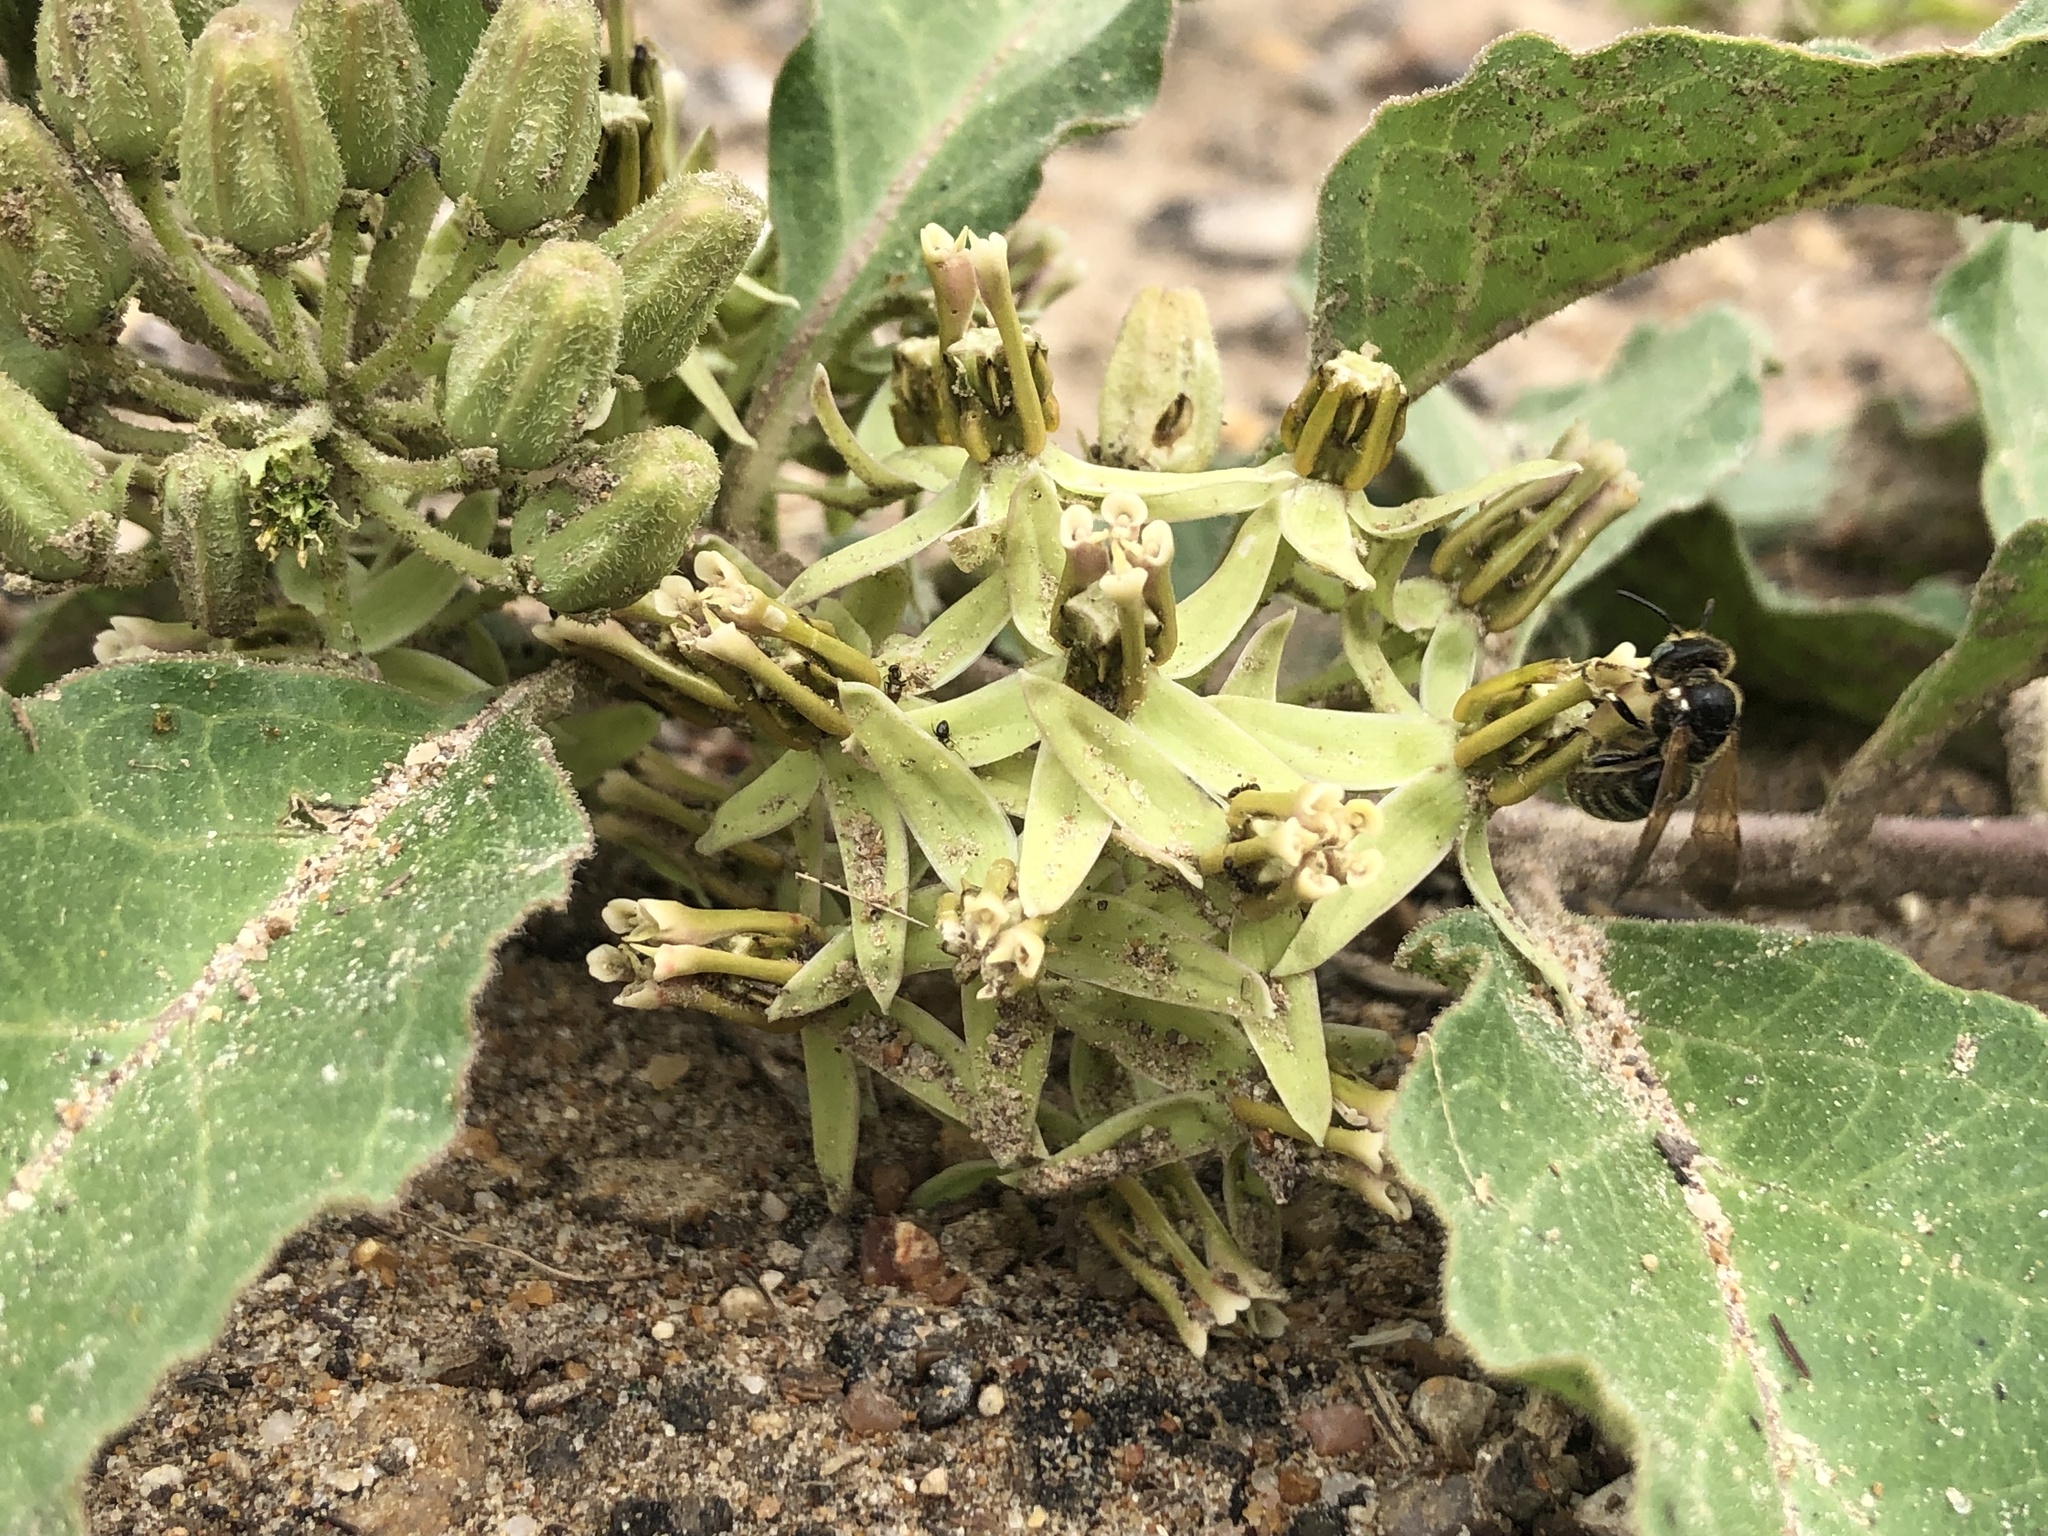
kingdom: Plantae
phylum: Tracheophyta
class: Magnoliopsida
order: Gentianales
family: Apocynaceae
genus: Asclepias
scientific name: Asclepias oenotheroides
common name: Zizotes milkweed
